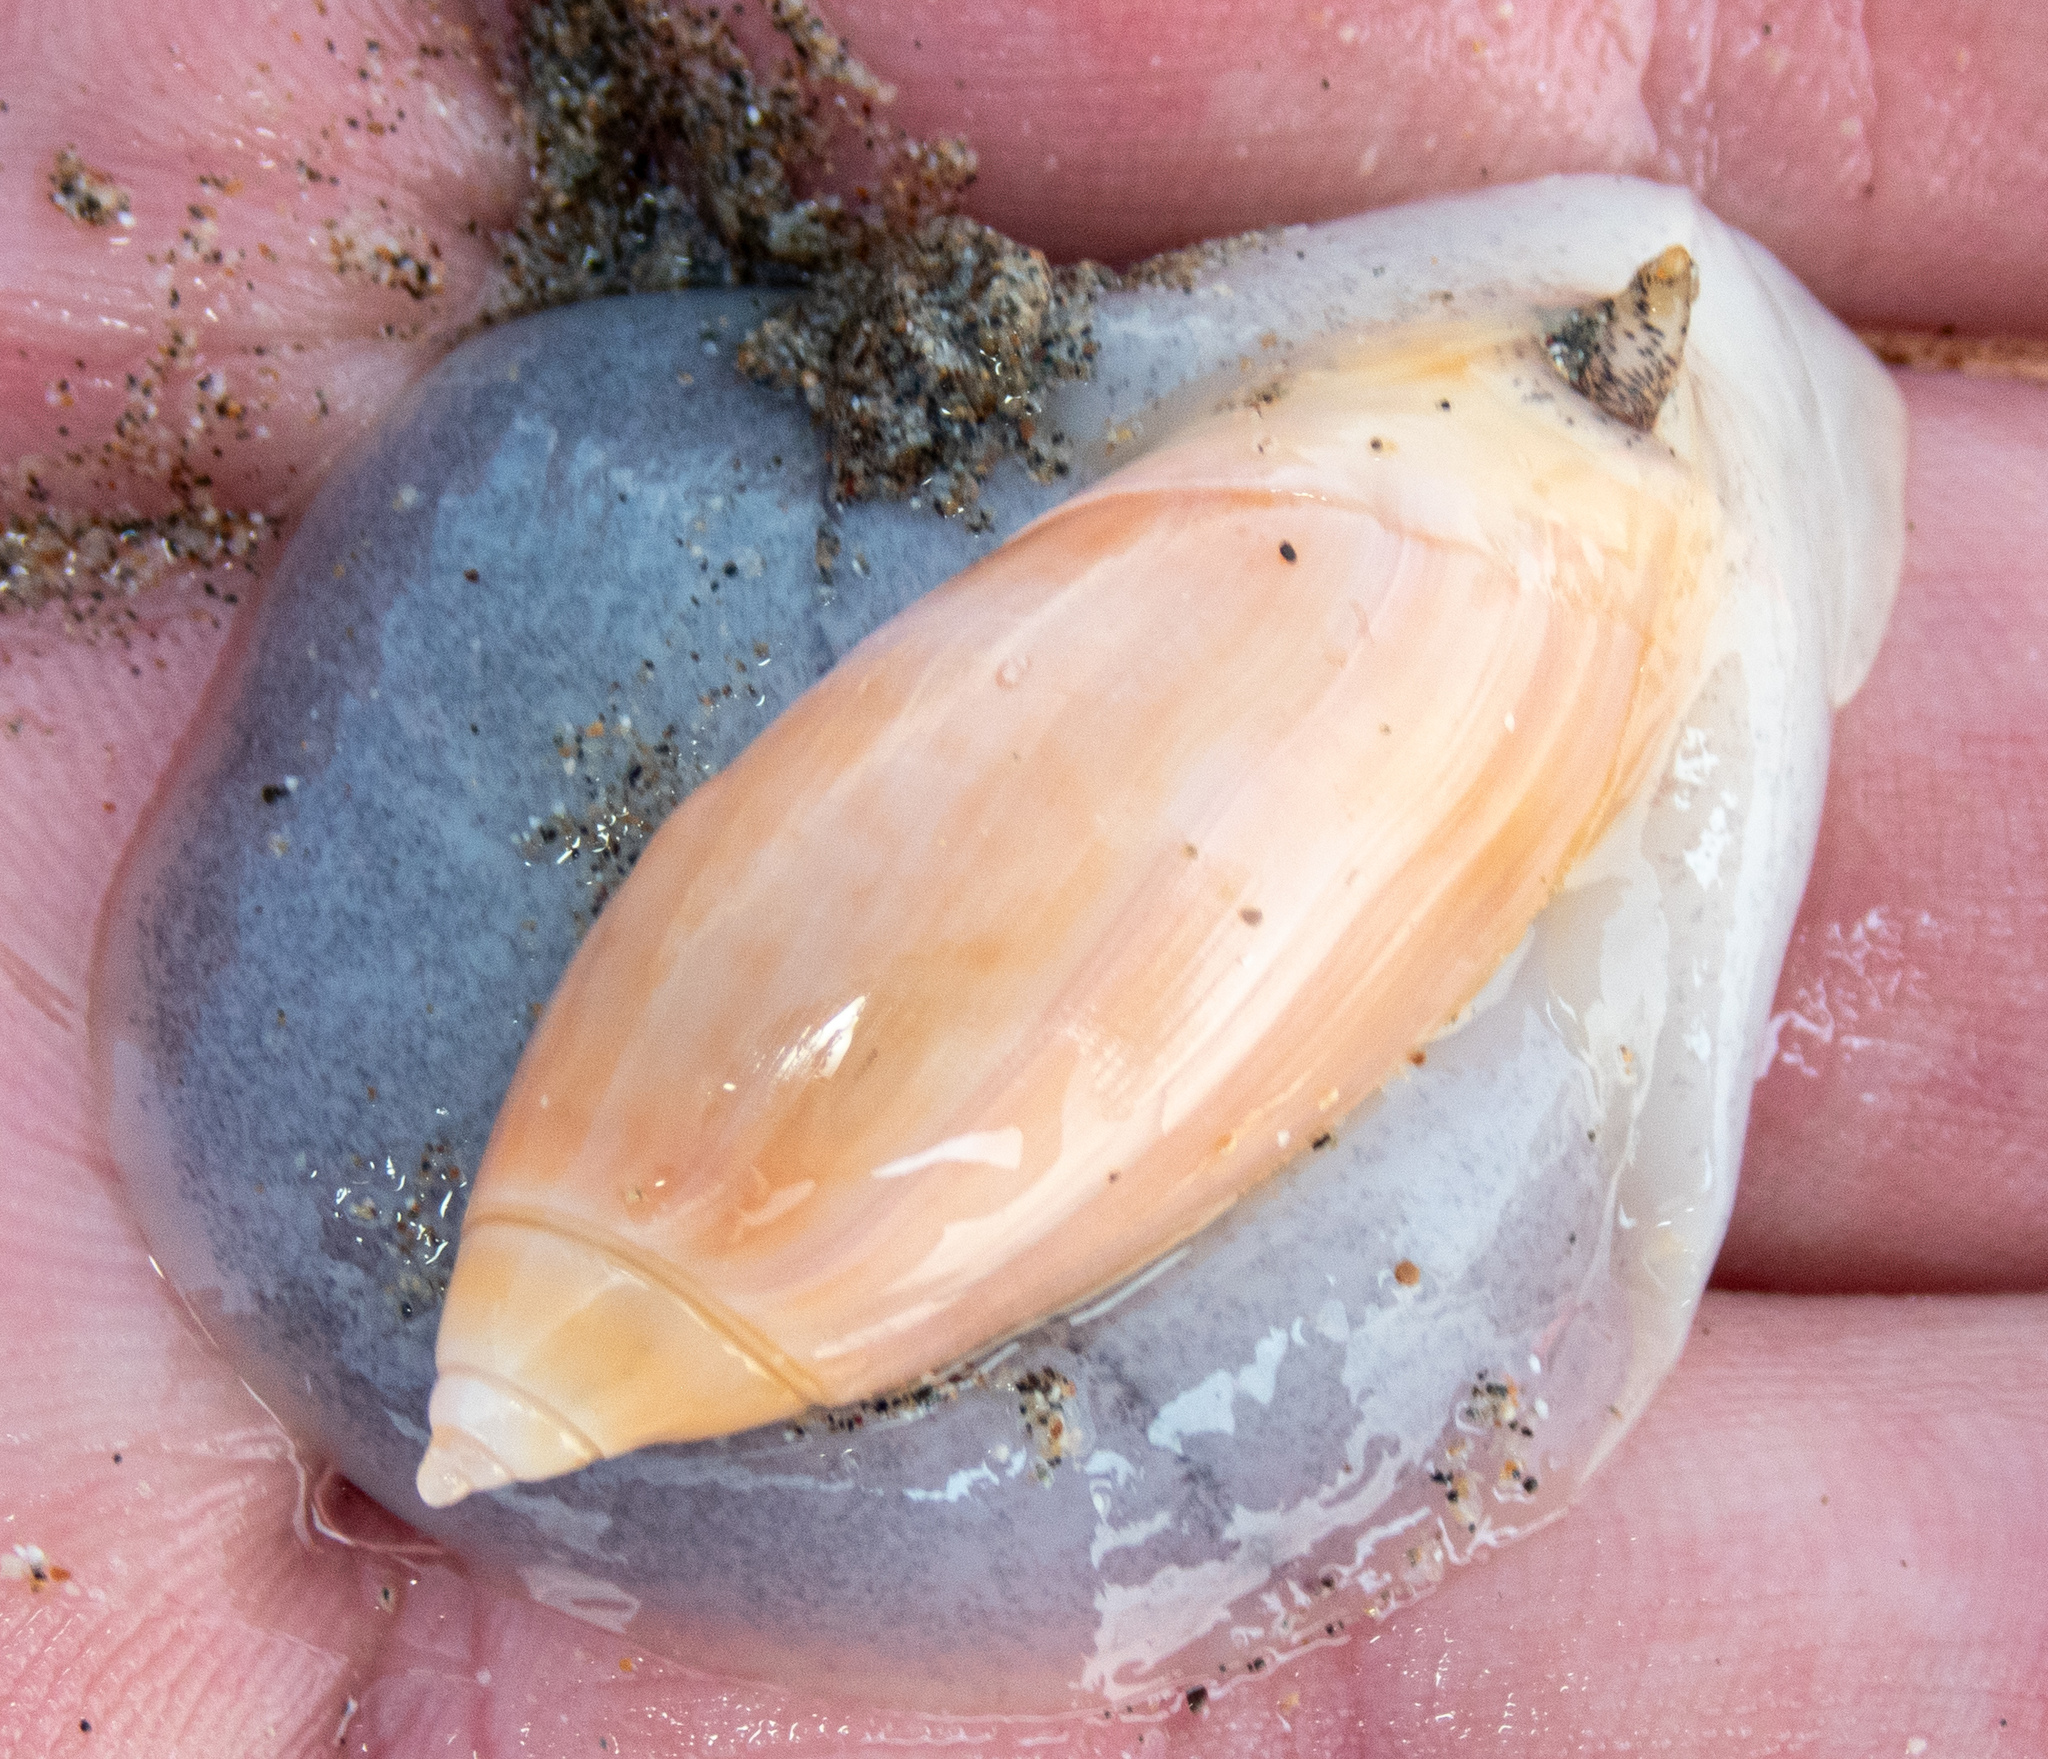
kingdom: Animalia
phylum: Mollusca
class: Gastropoda
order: Neogastropoda
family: Olividae
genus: Agaronia
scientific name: Agaronia griseoalba
